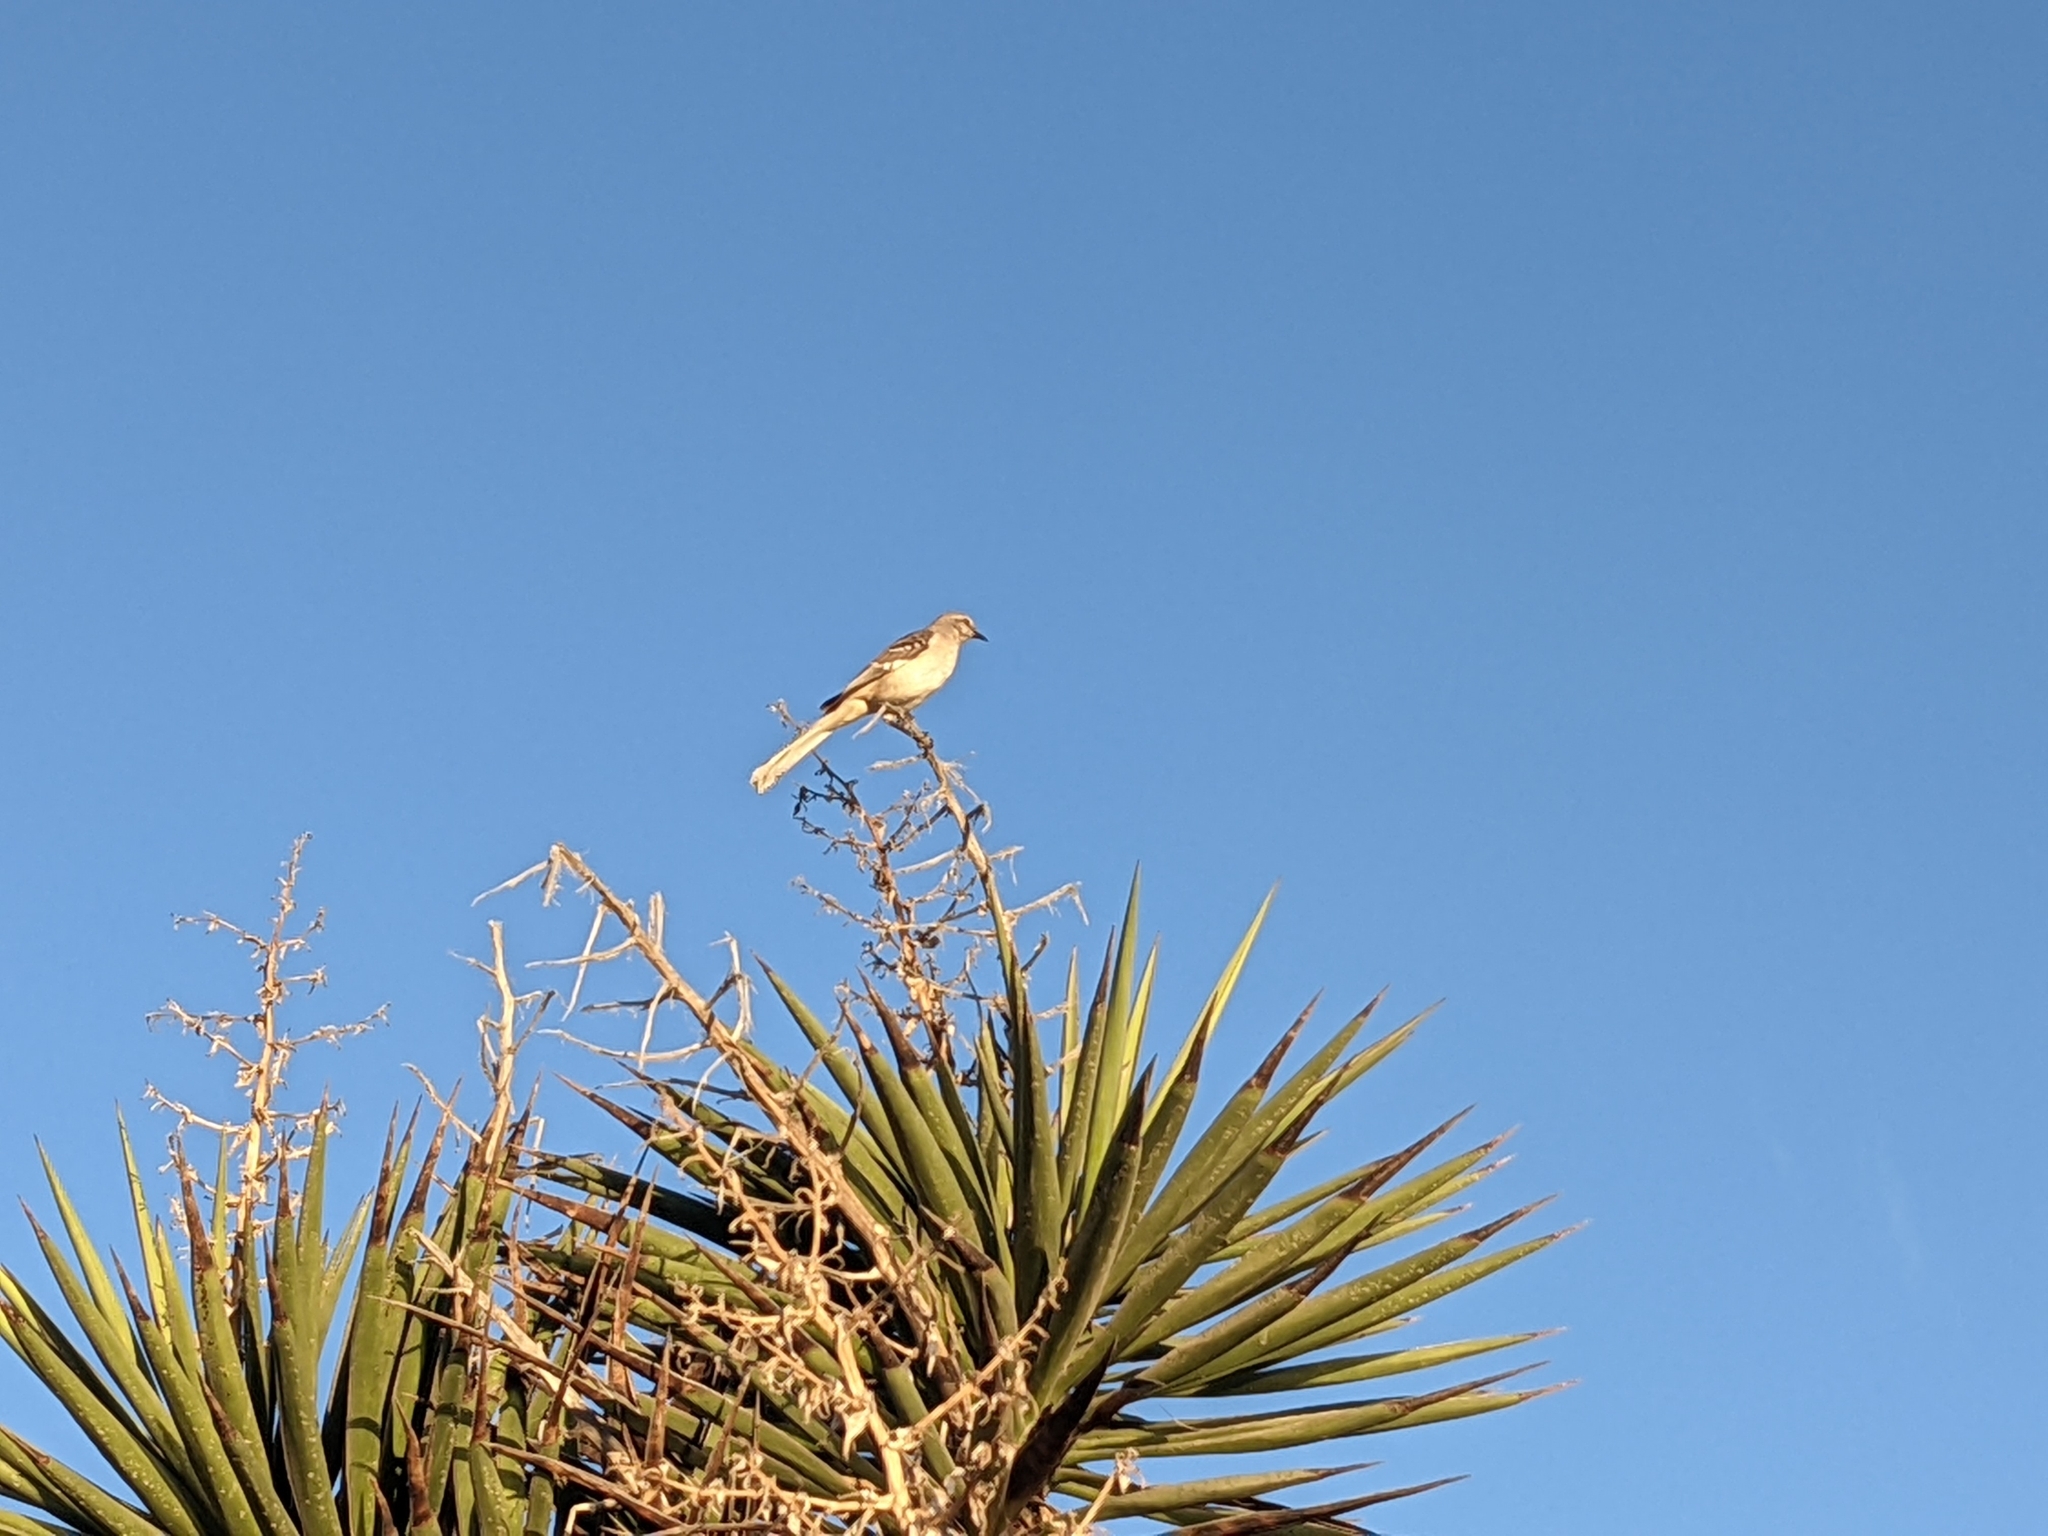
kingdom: Animalia
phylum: Chordata
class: Aves
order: Passeriformes
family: Mimidae
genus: Mimus
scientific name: Mimus polyglottos
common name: Northern mockingbird
